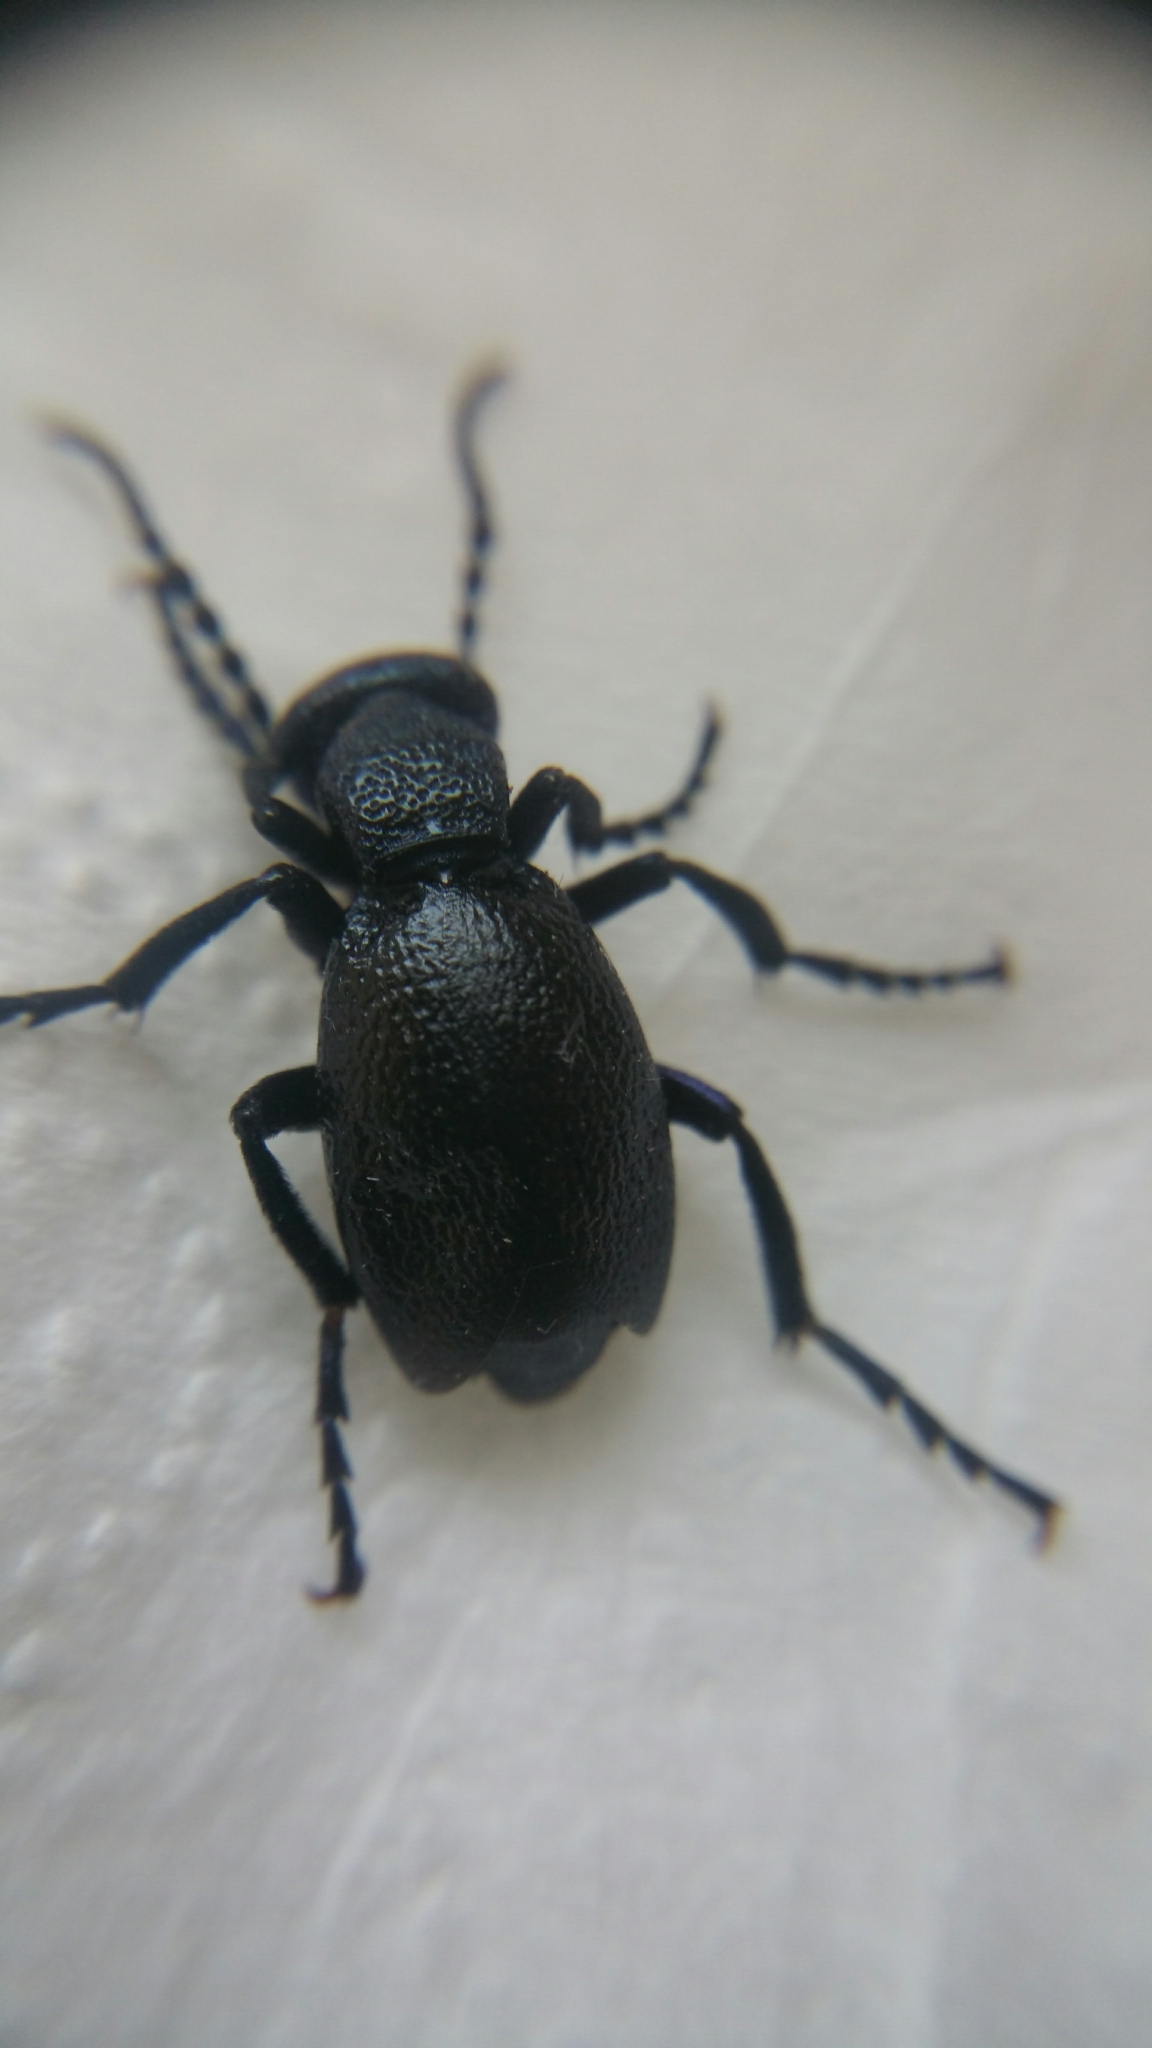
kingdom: Animalia
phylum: Arthropoda
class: Insecta
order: Coleoptera
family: Meloidae
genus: Meloe
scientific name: Meloe proscarabaeus
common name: Black oil-beetle
